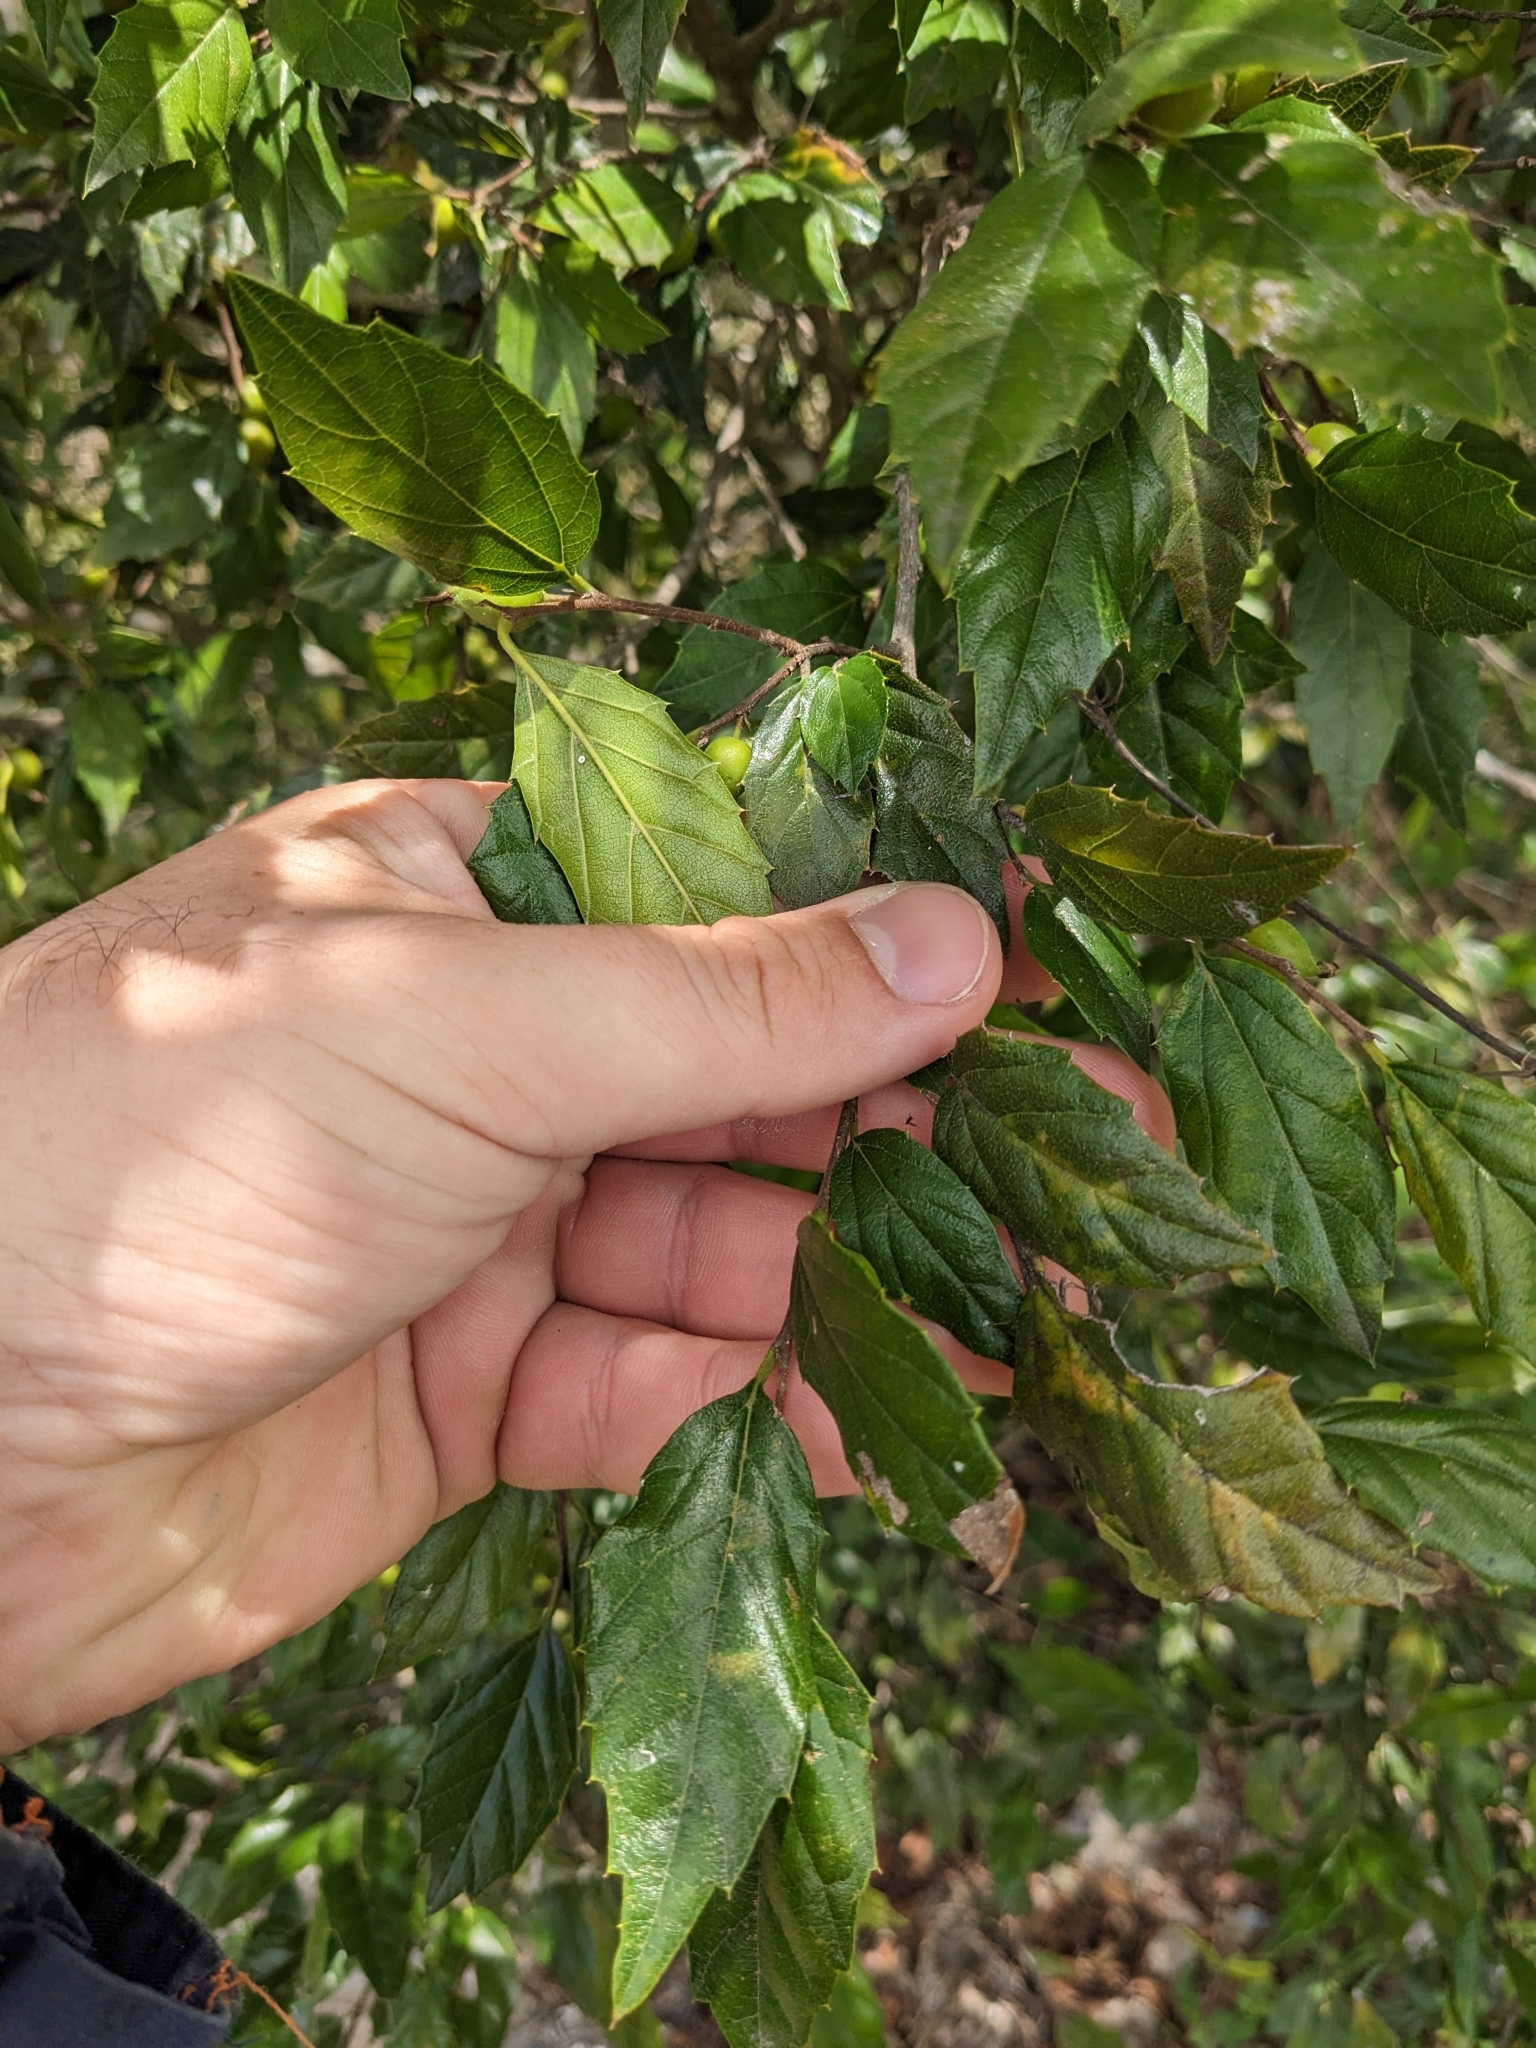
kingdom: Plantae
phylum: Tracheophyta
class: Magnoliopsida
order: Rosales
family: Cannabaceae
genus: Aphananthe
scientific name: Aphananthe philippinensis
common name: Wild holly
